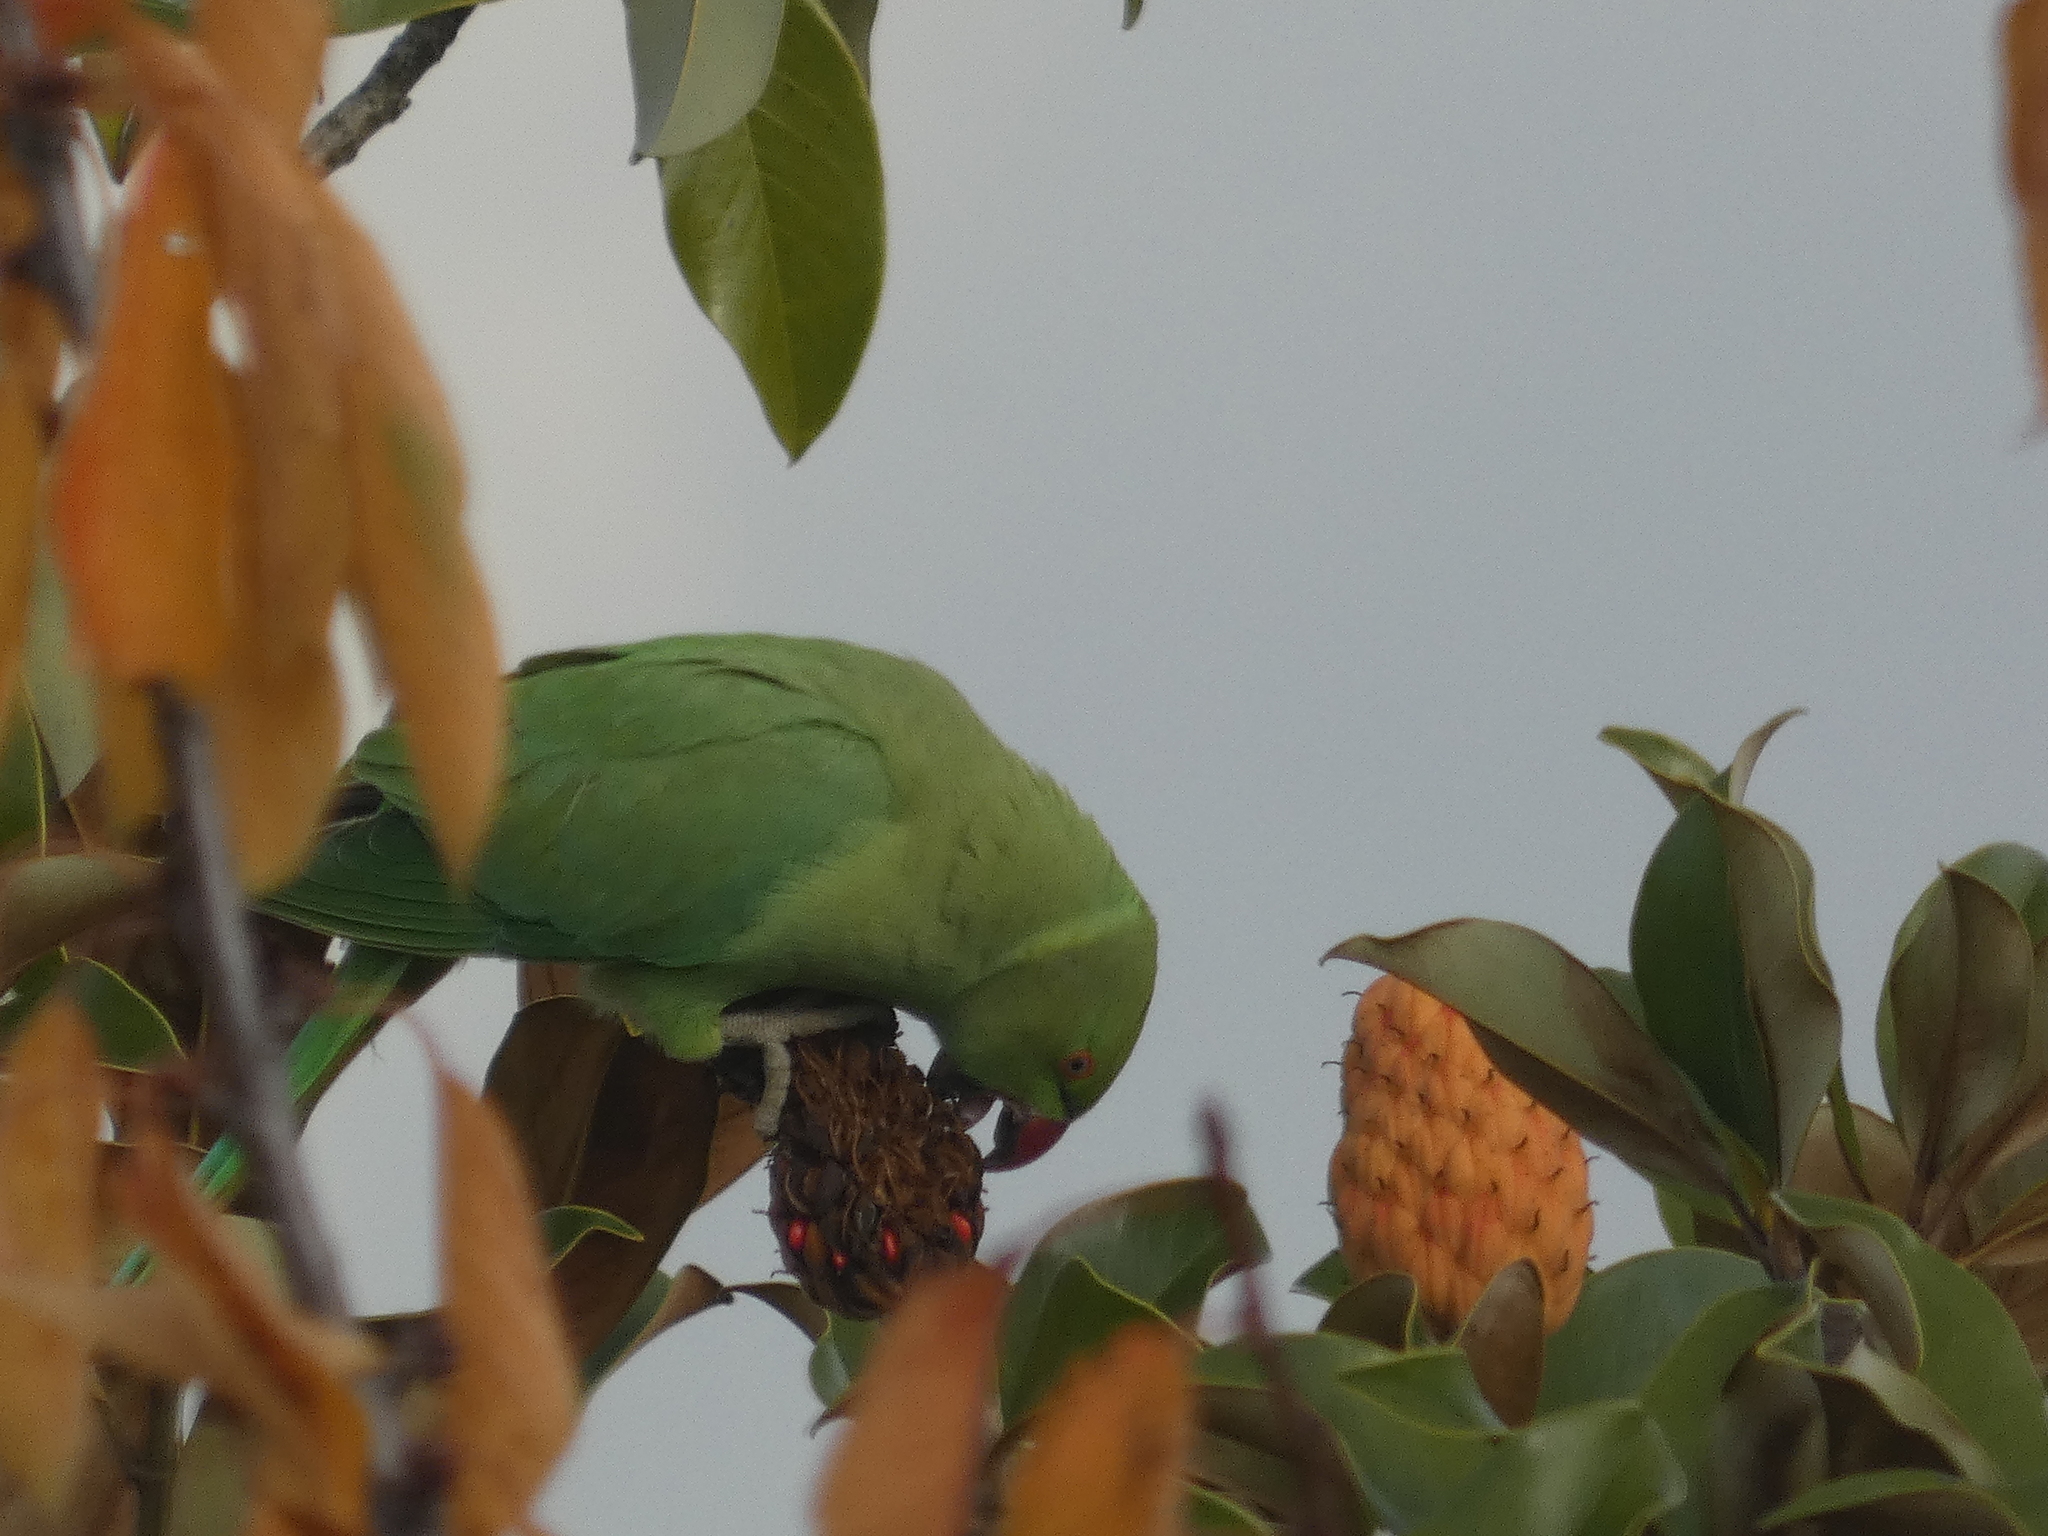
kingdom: Animalia
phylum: Chordata
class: Aves
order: Psittaciformes
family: Psittacidae
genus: Psittacula
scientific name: Psittacula krameri
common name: Rose-ringed parakeet
